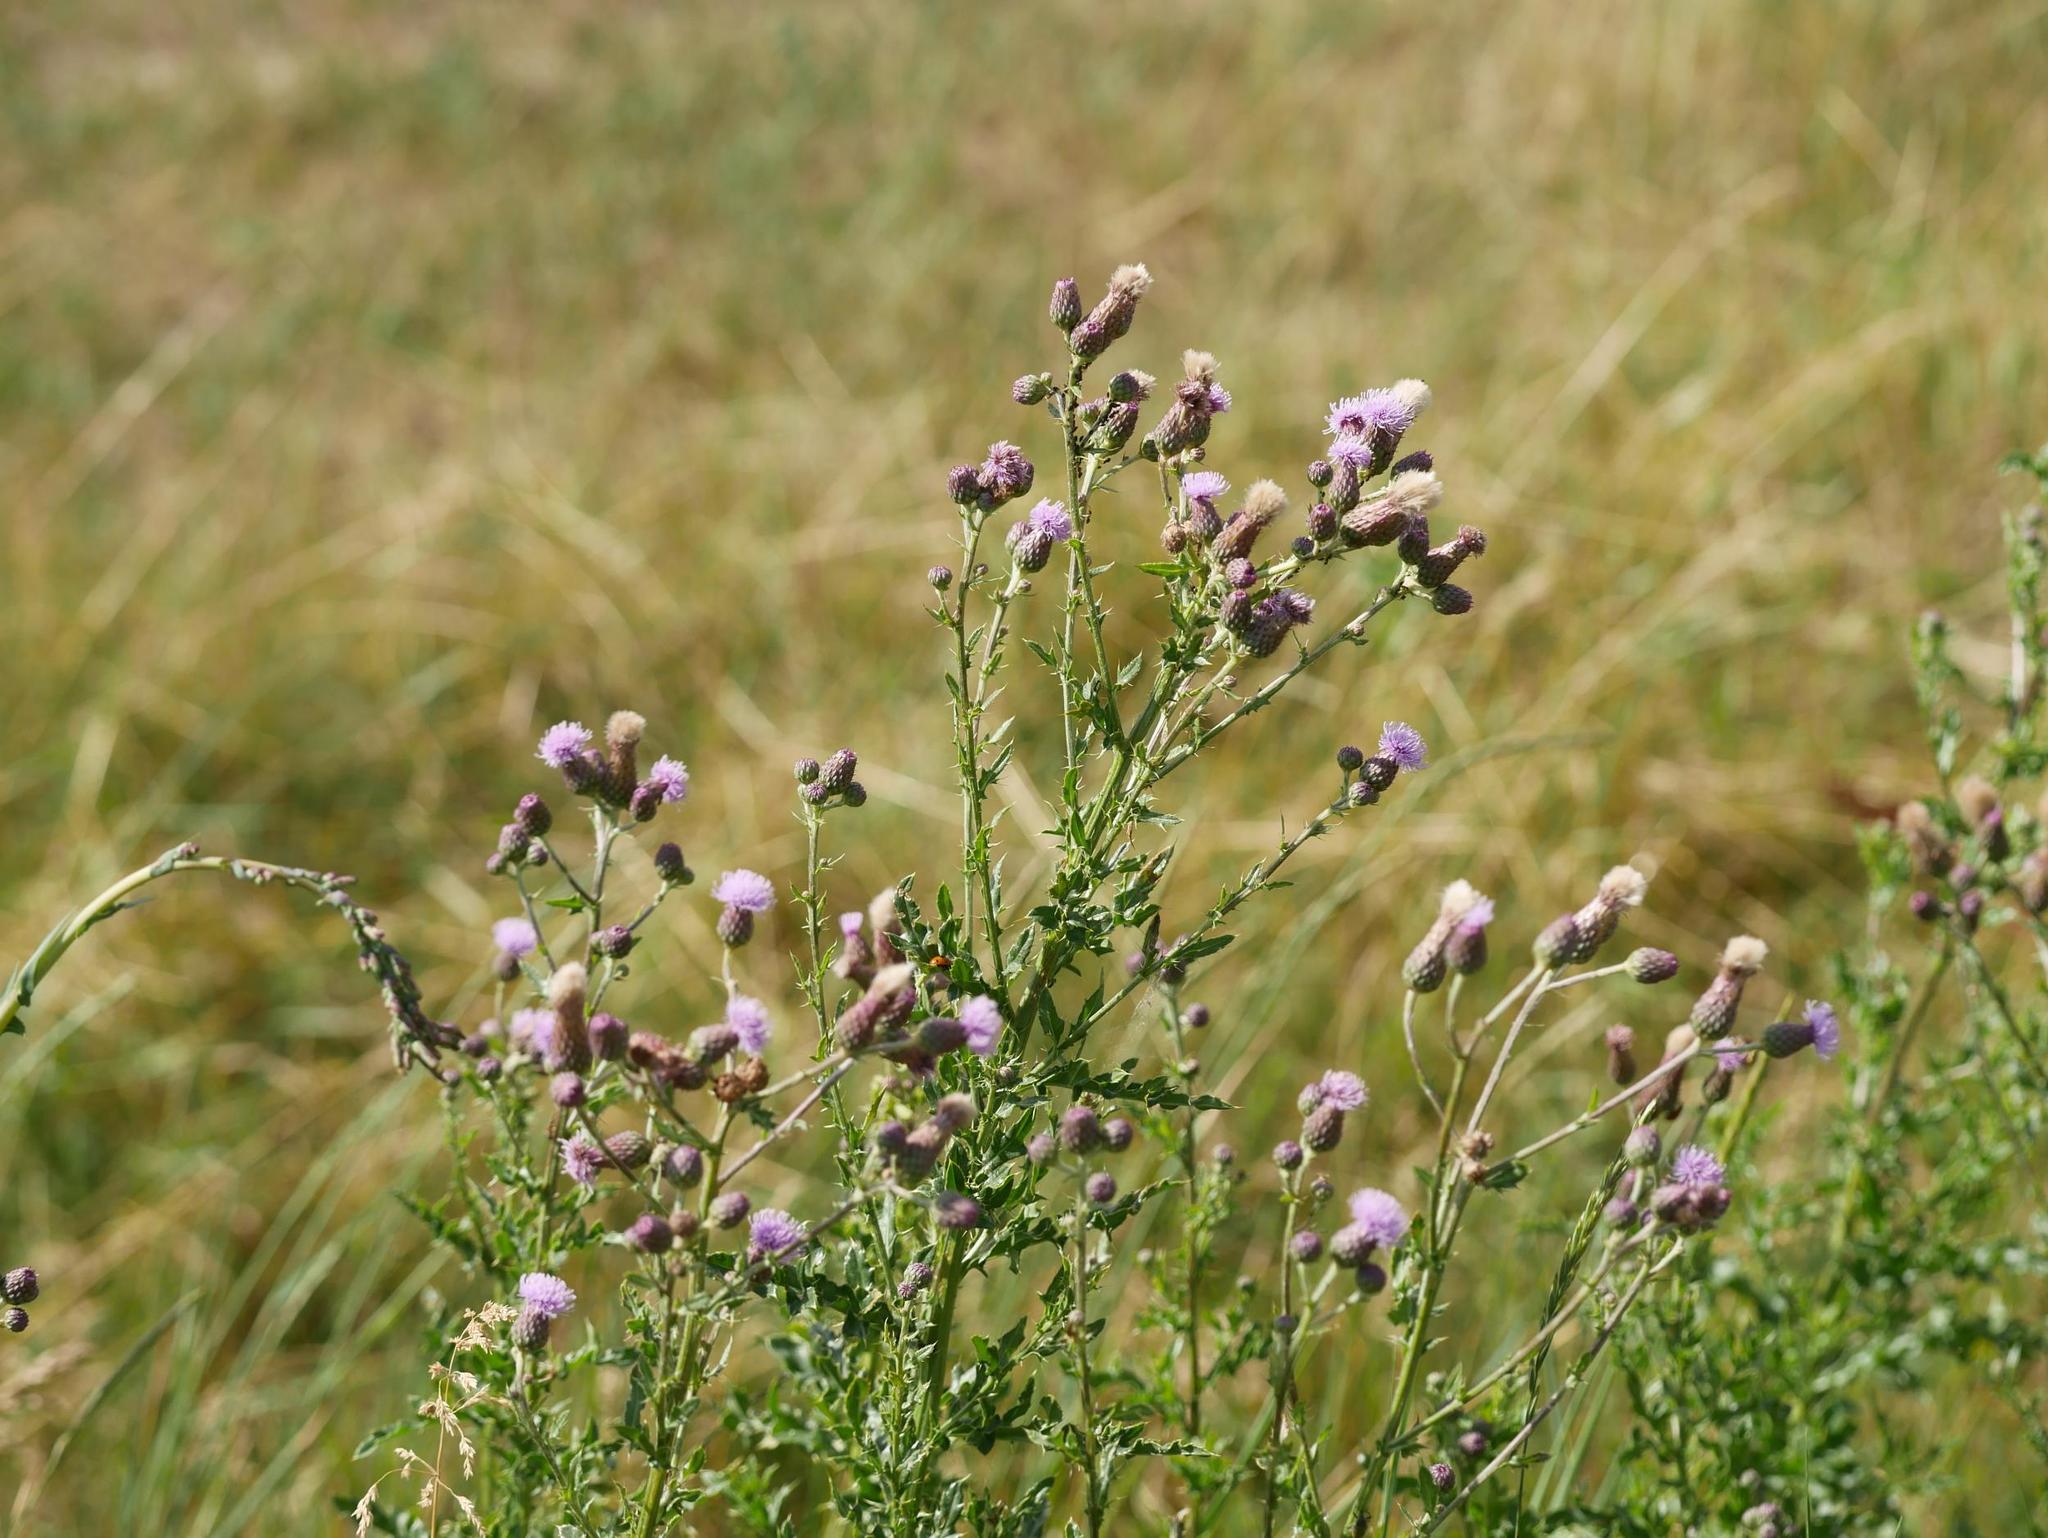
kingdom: Plantae
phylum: Tracheophyta
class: Magnoliopsida
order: Asterales
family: Asteraceae
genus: Cirsium
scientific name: Cirsium arvense
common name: Creeping thistle
